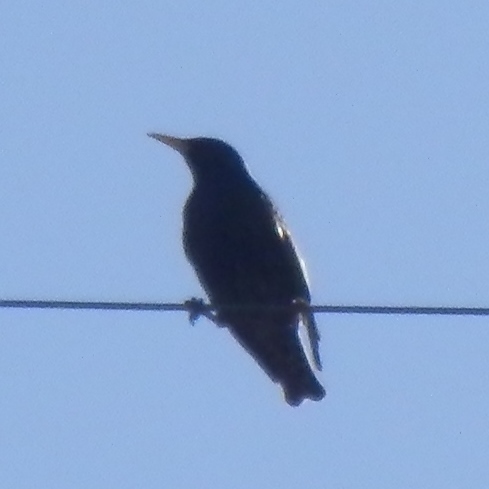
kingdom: Animalia
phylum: Chordata
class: Aves
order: Passeriformes
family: Sturnidae
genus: Sturnus
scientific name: Sturnus vulgaris
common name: Common starling
